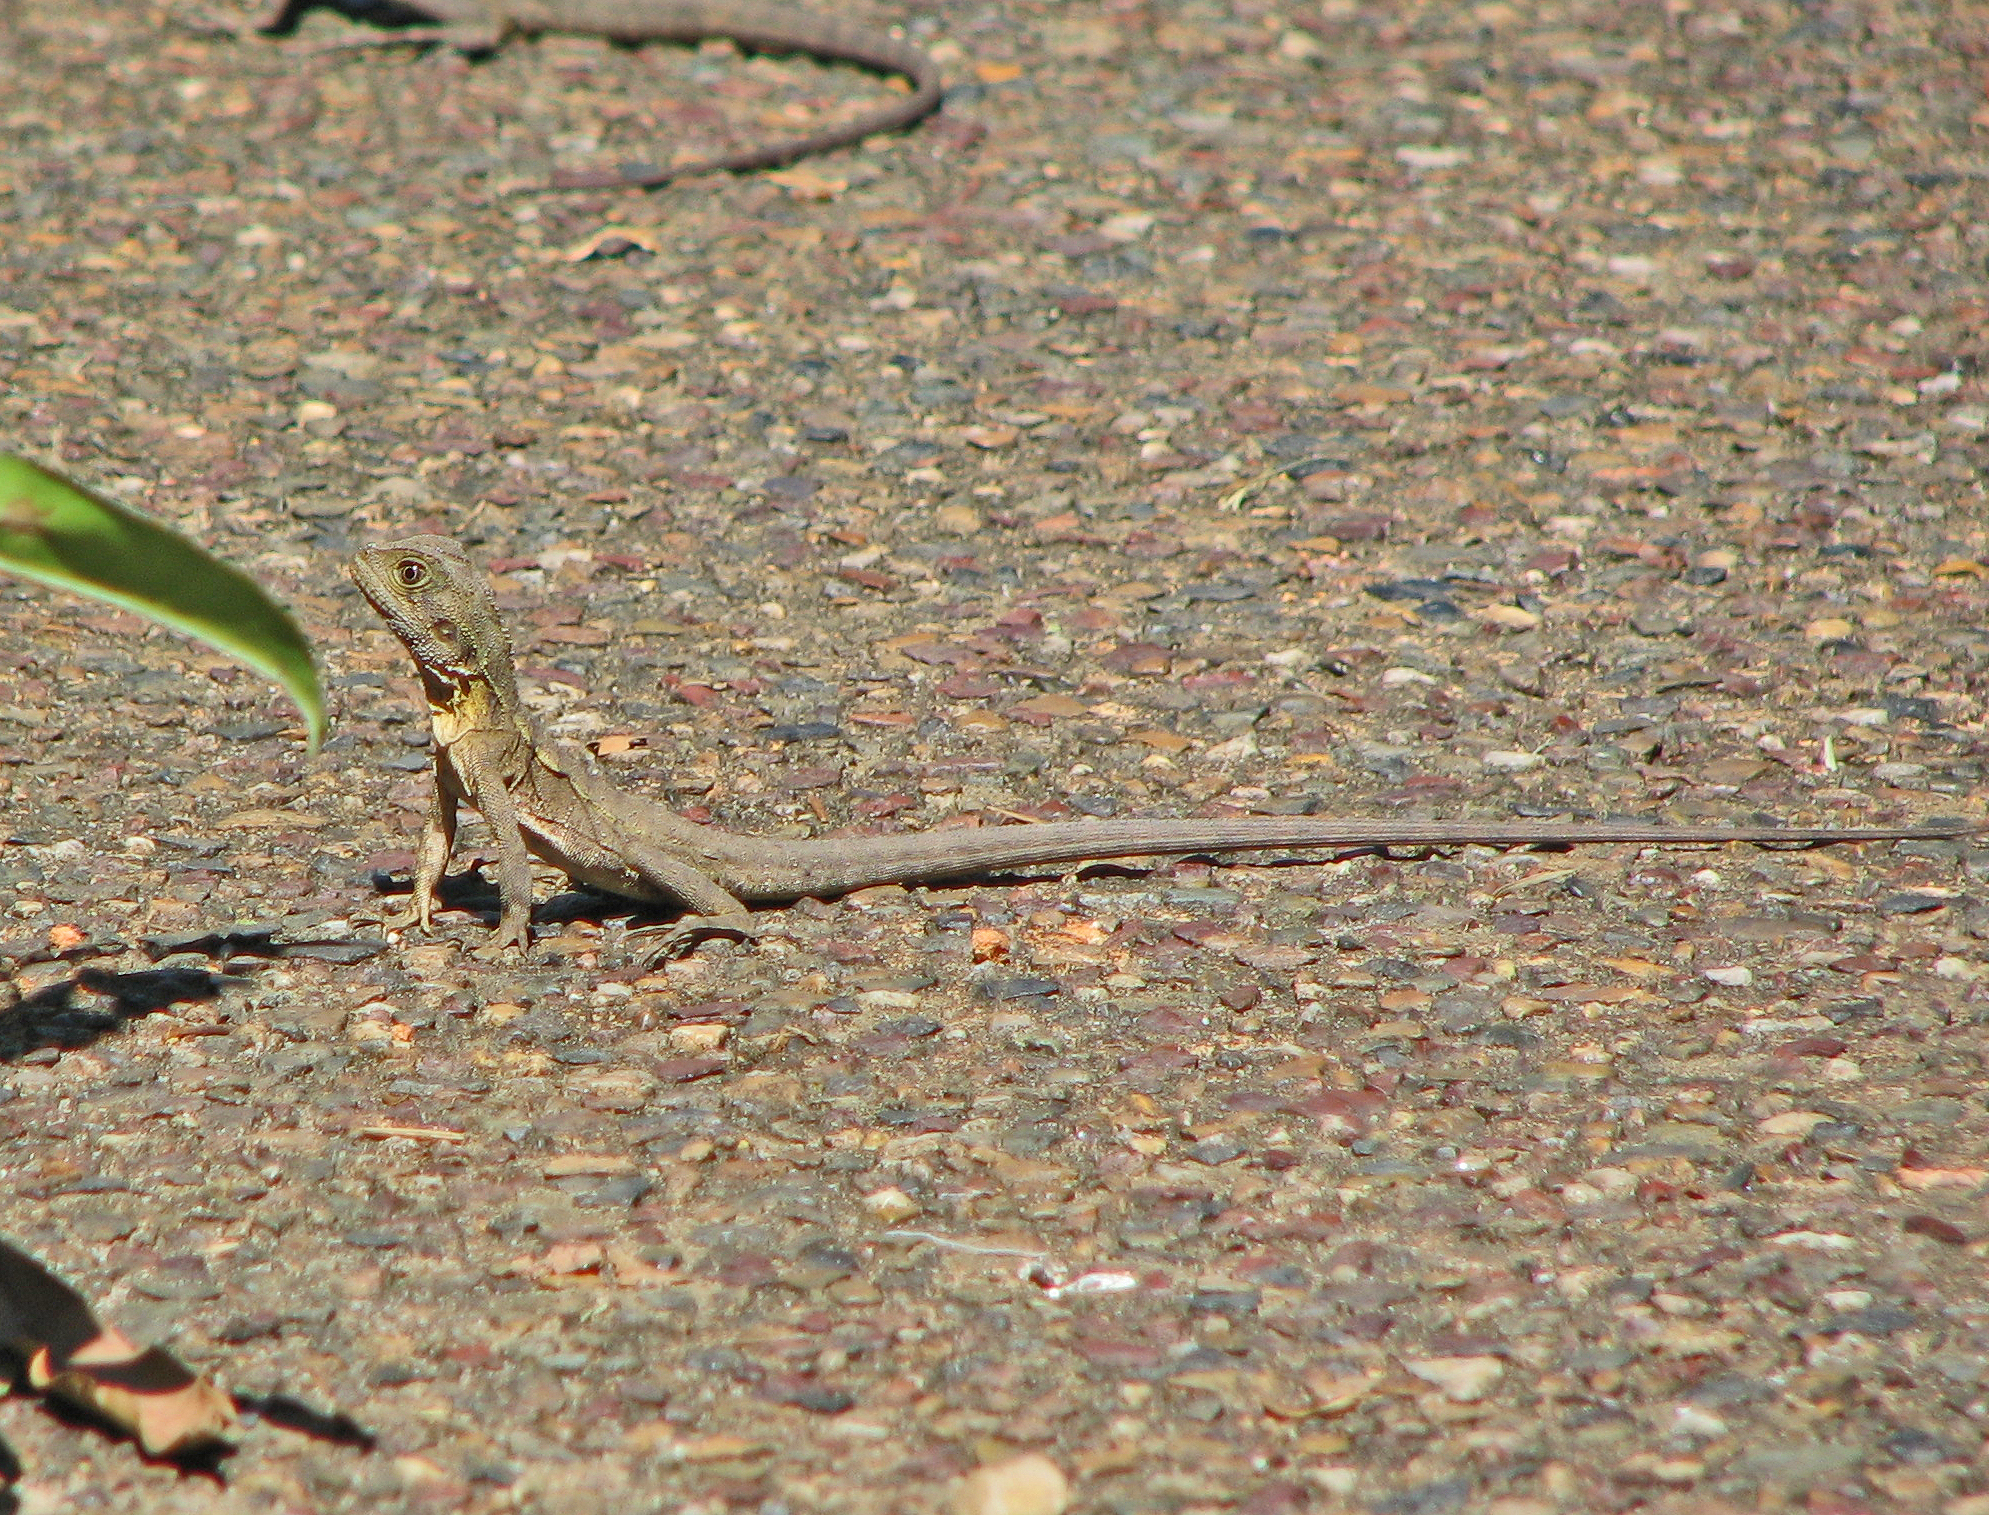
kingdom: Animalia
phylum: Chordata
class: Squamata
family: Agamidae
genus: Intellagama
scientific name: Intellagama lesueurii
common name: Eastern water dragon
